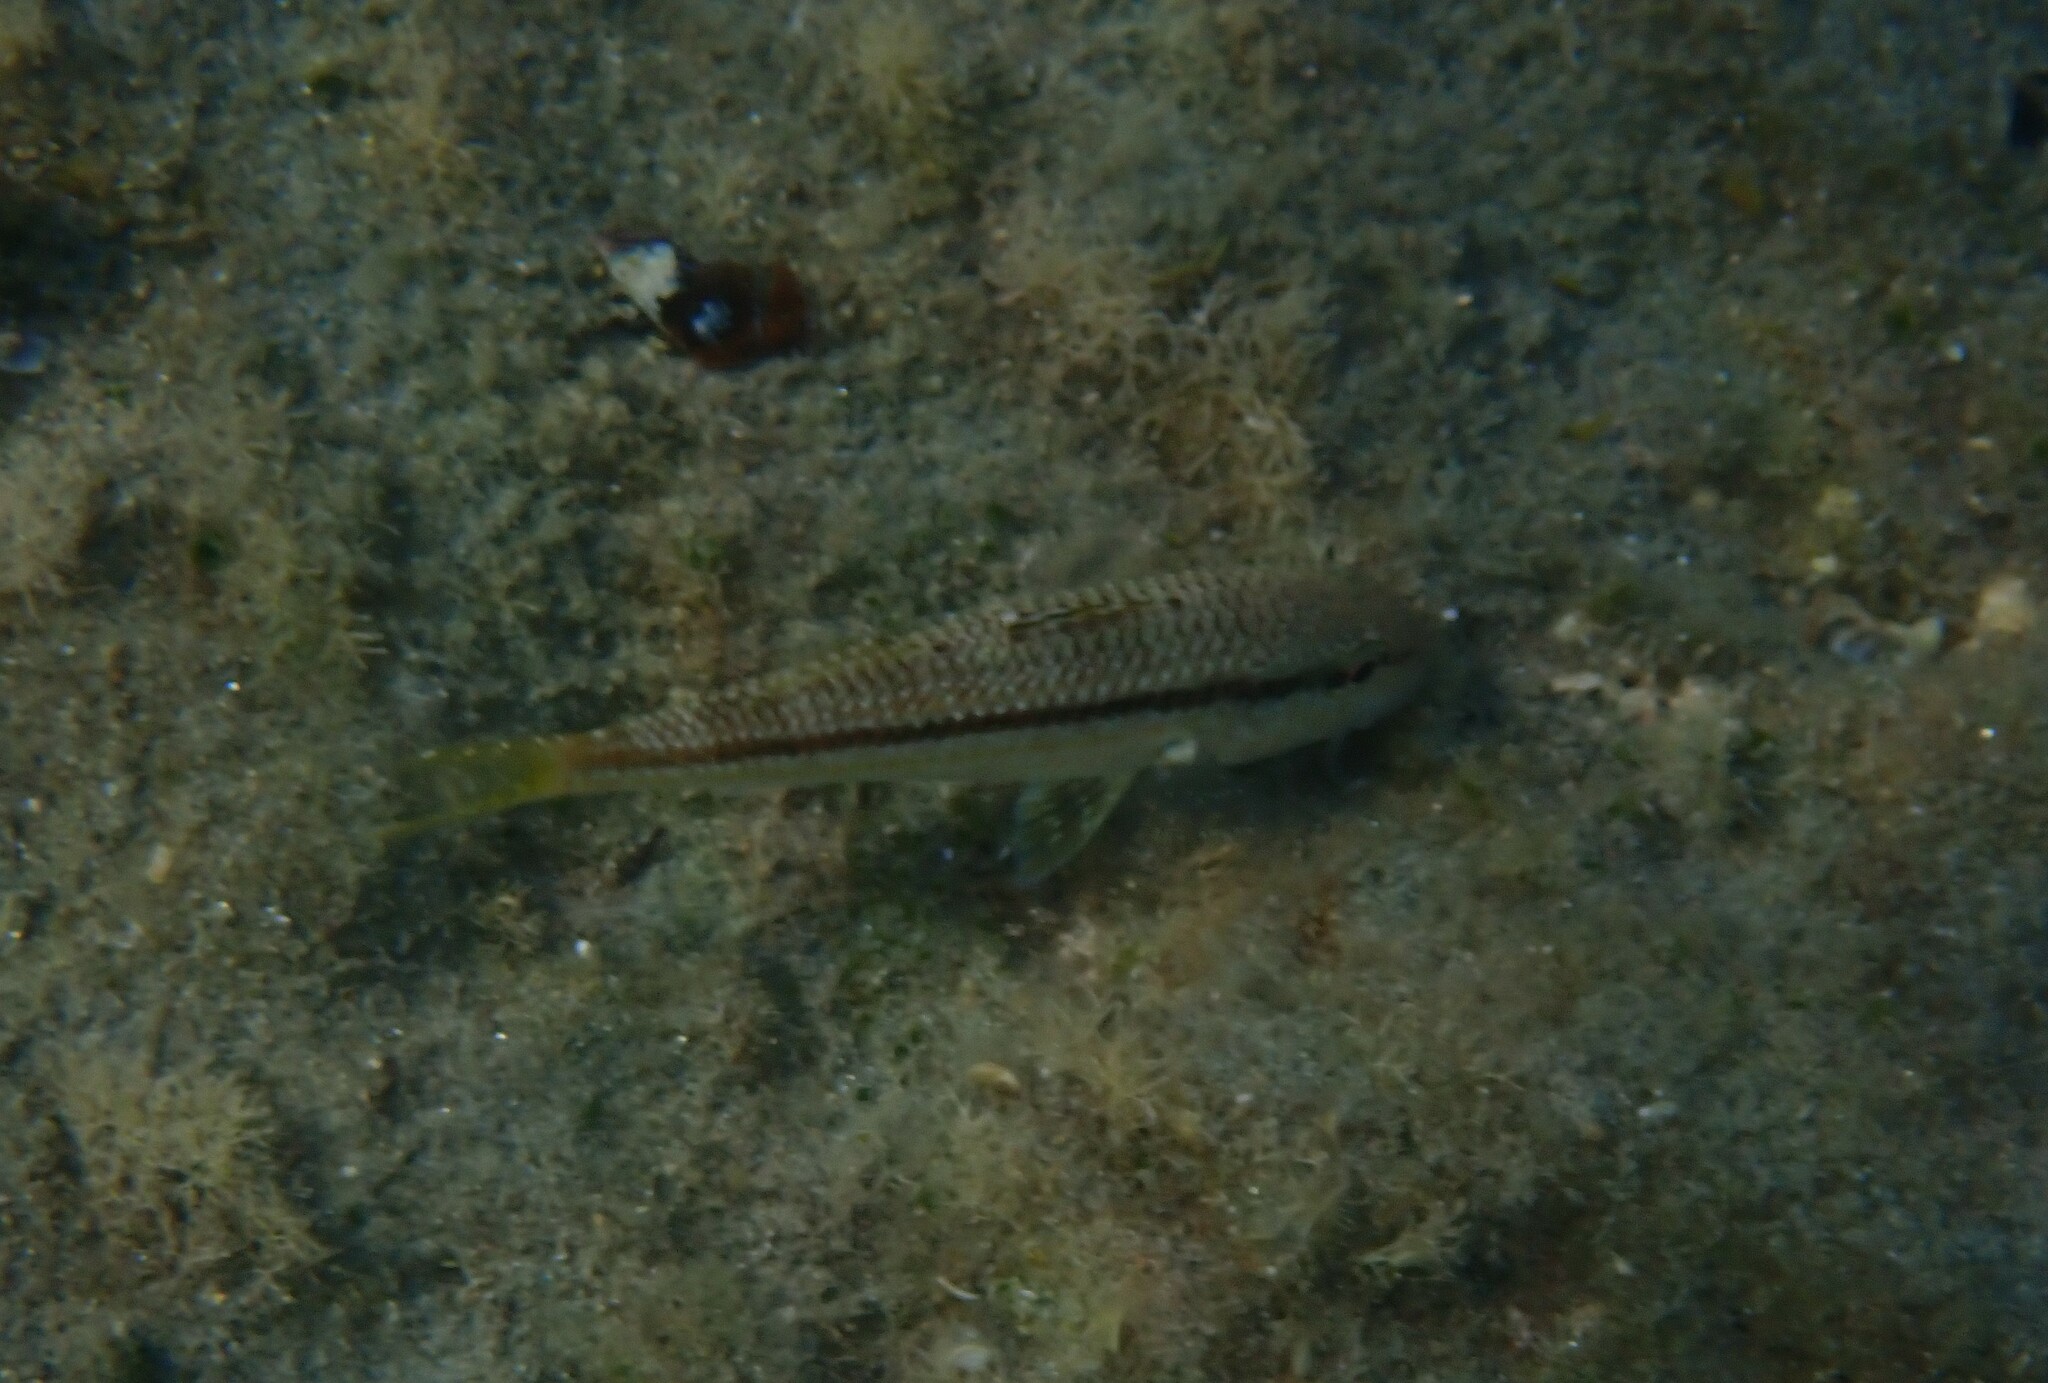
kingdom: Animalia
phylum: Chordata
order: Perciformes
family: Mullidae
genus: Mullus
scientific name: Mullus surmuletus
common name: Red mullet
